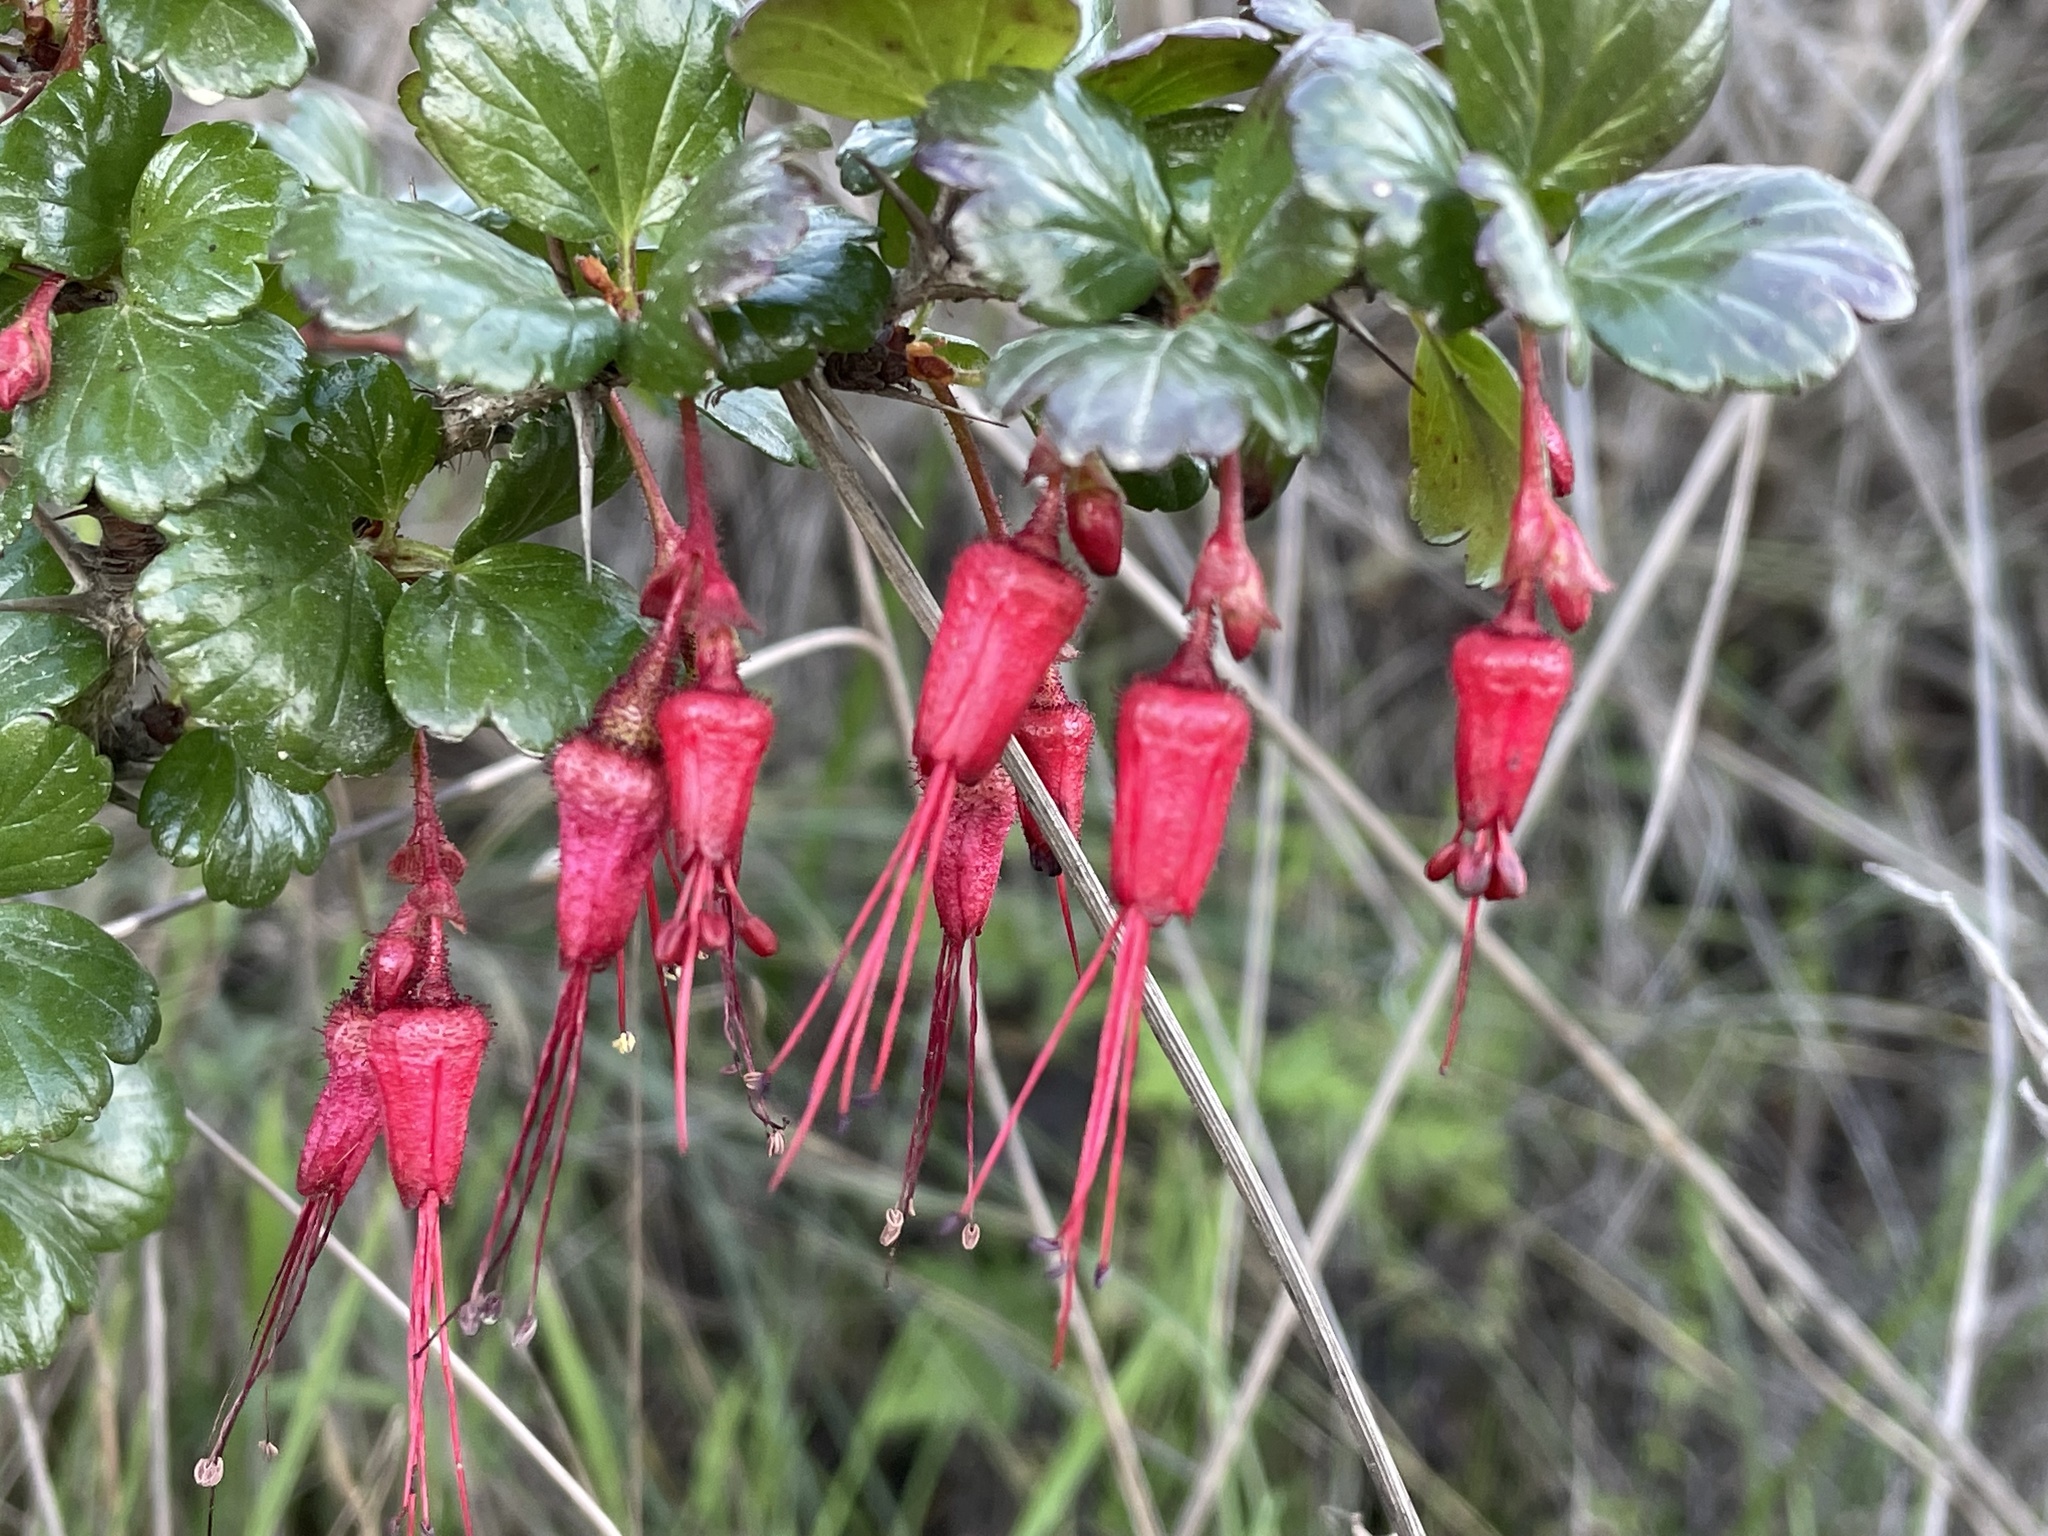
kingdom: Plantae
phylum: Tracheophyta
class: Magnoliopsida
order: Saxifragales
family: Grossulariaceae
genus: Ribes
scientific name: Ribes speciosum
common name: Fuchsia-flower gooseberry
